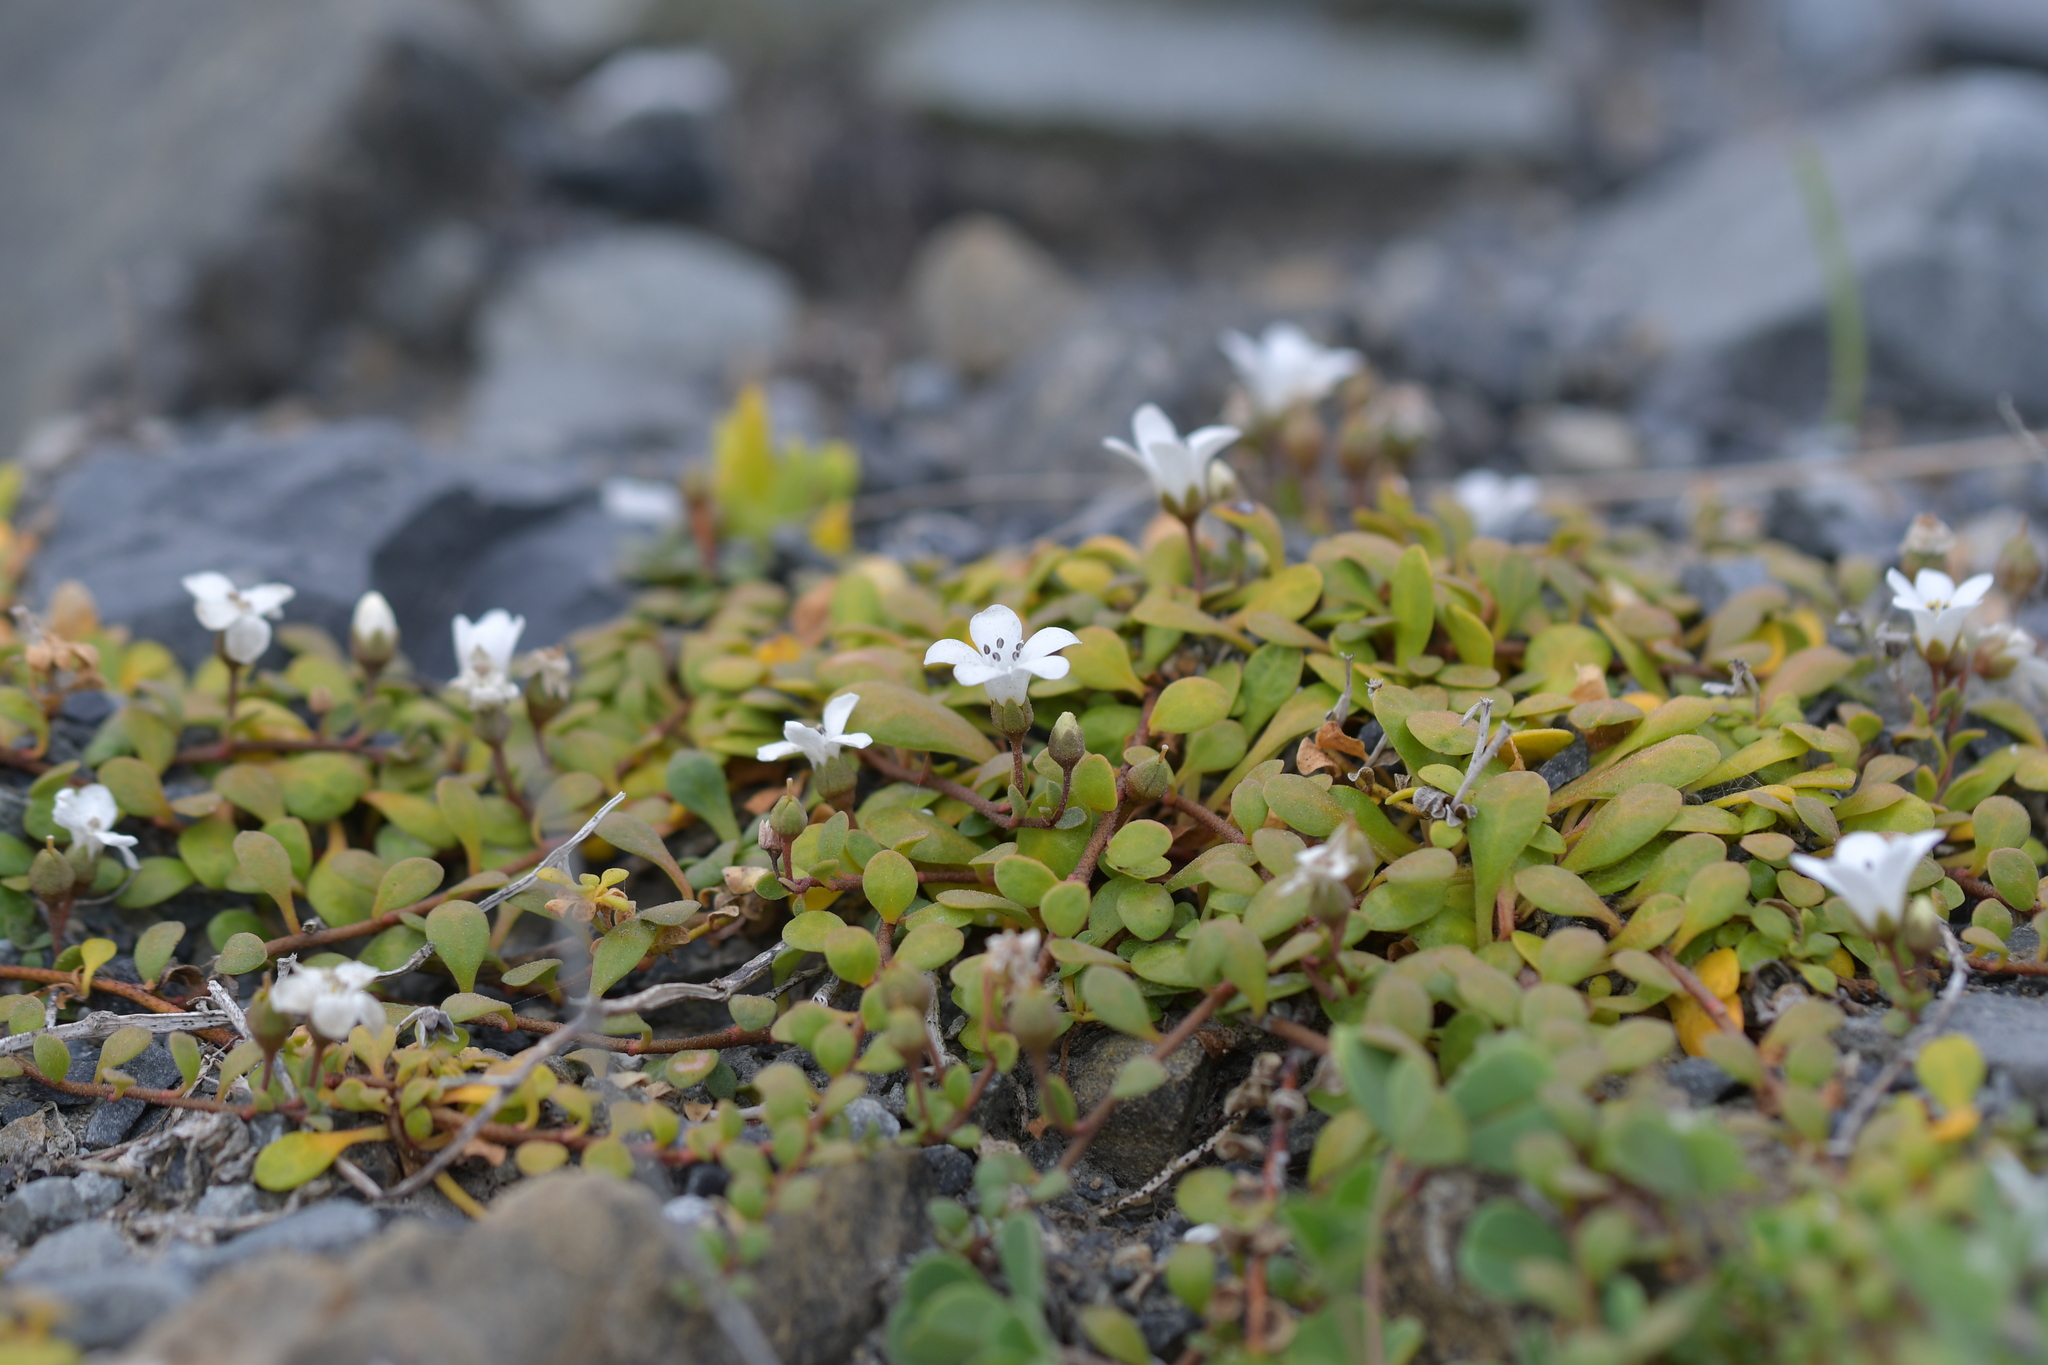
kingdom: Plantae
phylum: Tracheophyta
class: Magnoliopsida
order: Ericales
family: Primulaceae
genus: Samolus
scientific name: Samolus repens
